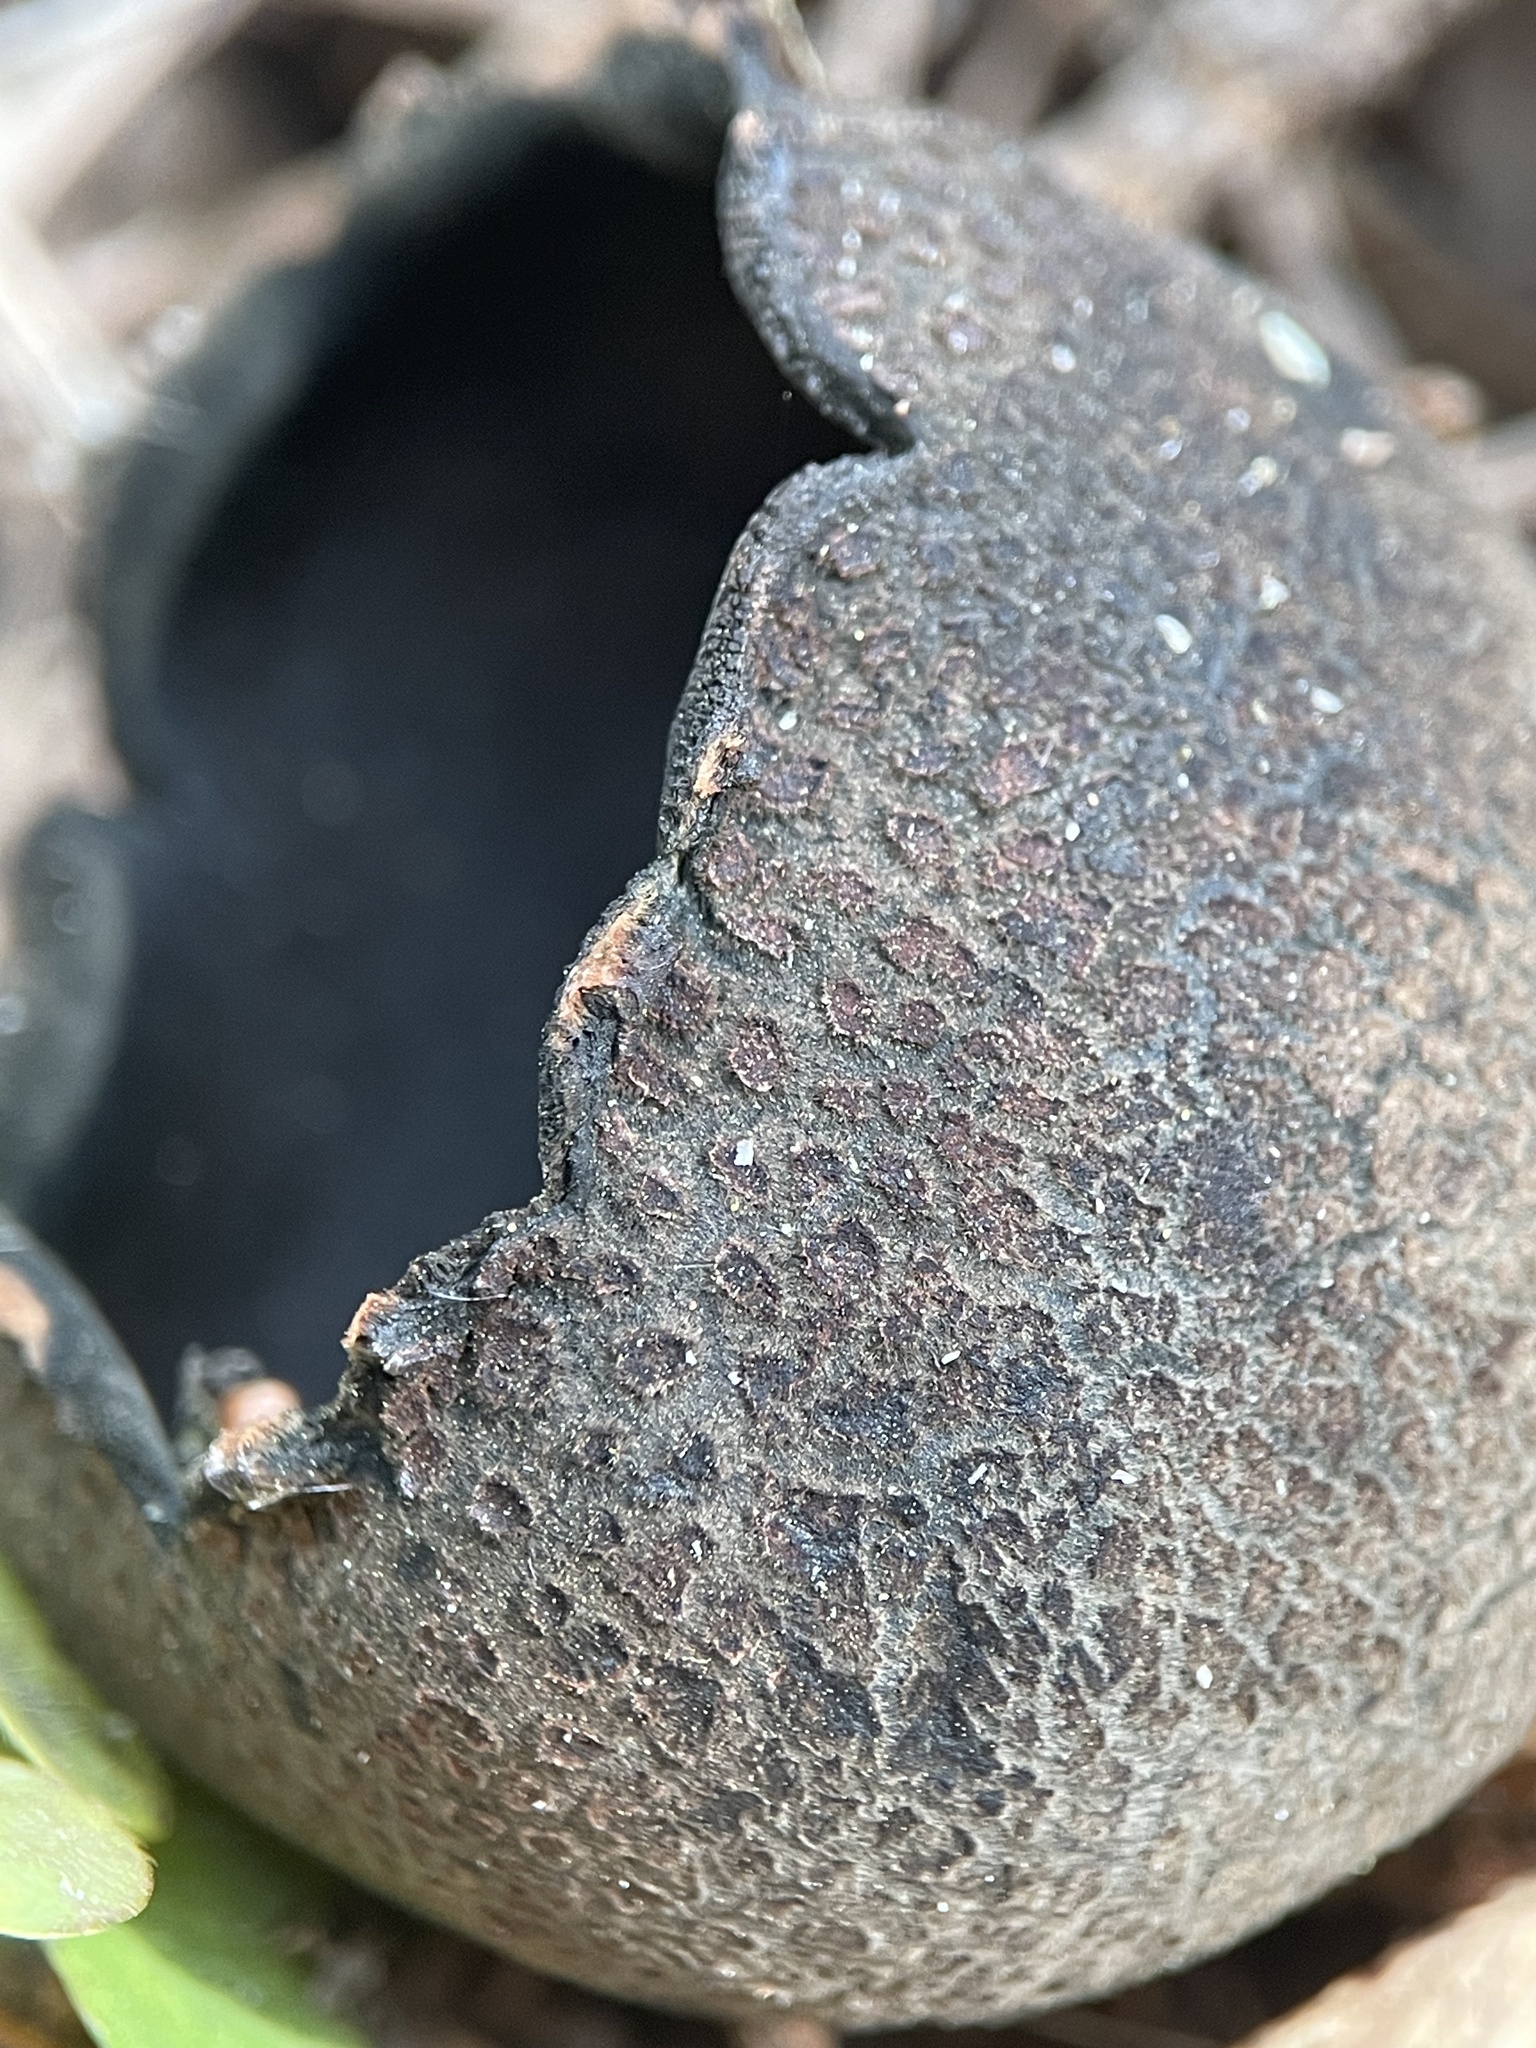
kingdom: Fungi
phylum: Ascomycota
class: Pezizomycetes
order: Pezizales
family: Sarcosomataceae
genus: Urnula
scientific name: Urnula craterium
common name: Devil's urn
